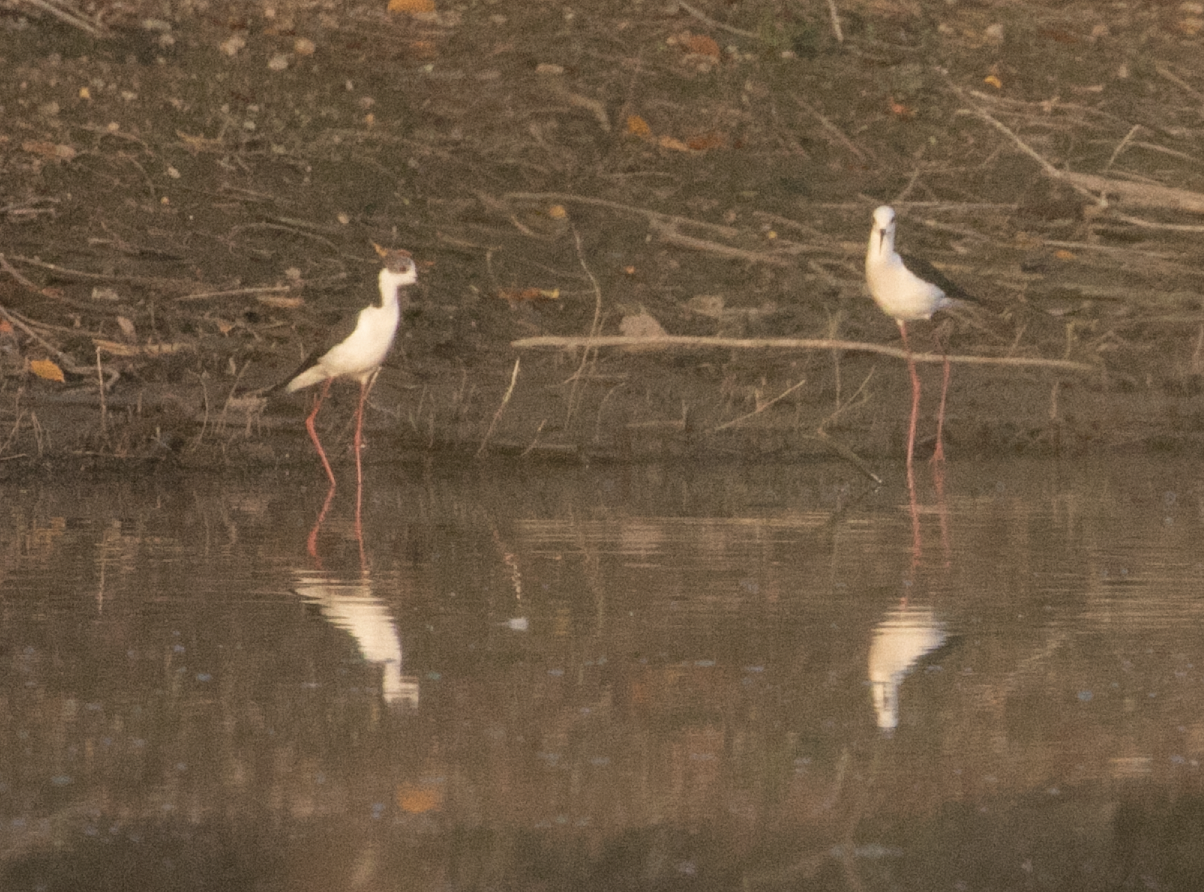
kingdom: Animalia
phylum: Chordata
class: Aves
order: Charadriiformes
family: Recurvirostridae
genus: Himantopus
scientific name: Himantopus himantopus
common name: Black-winged stilt
